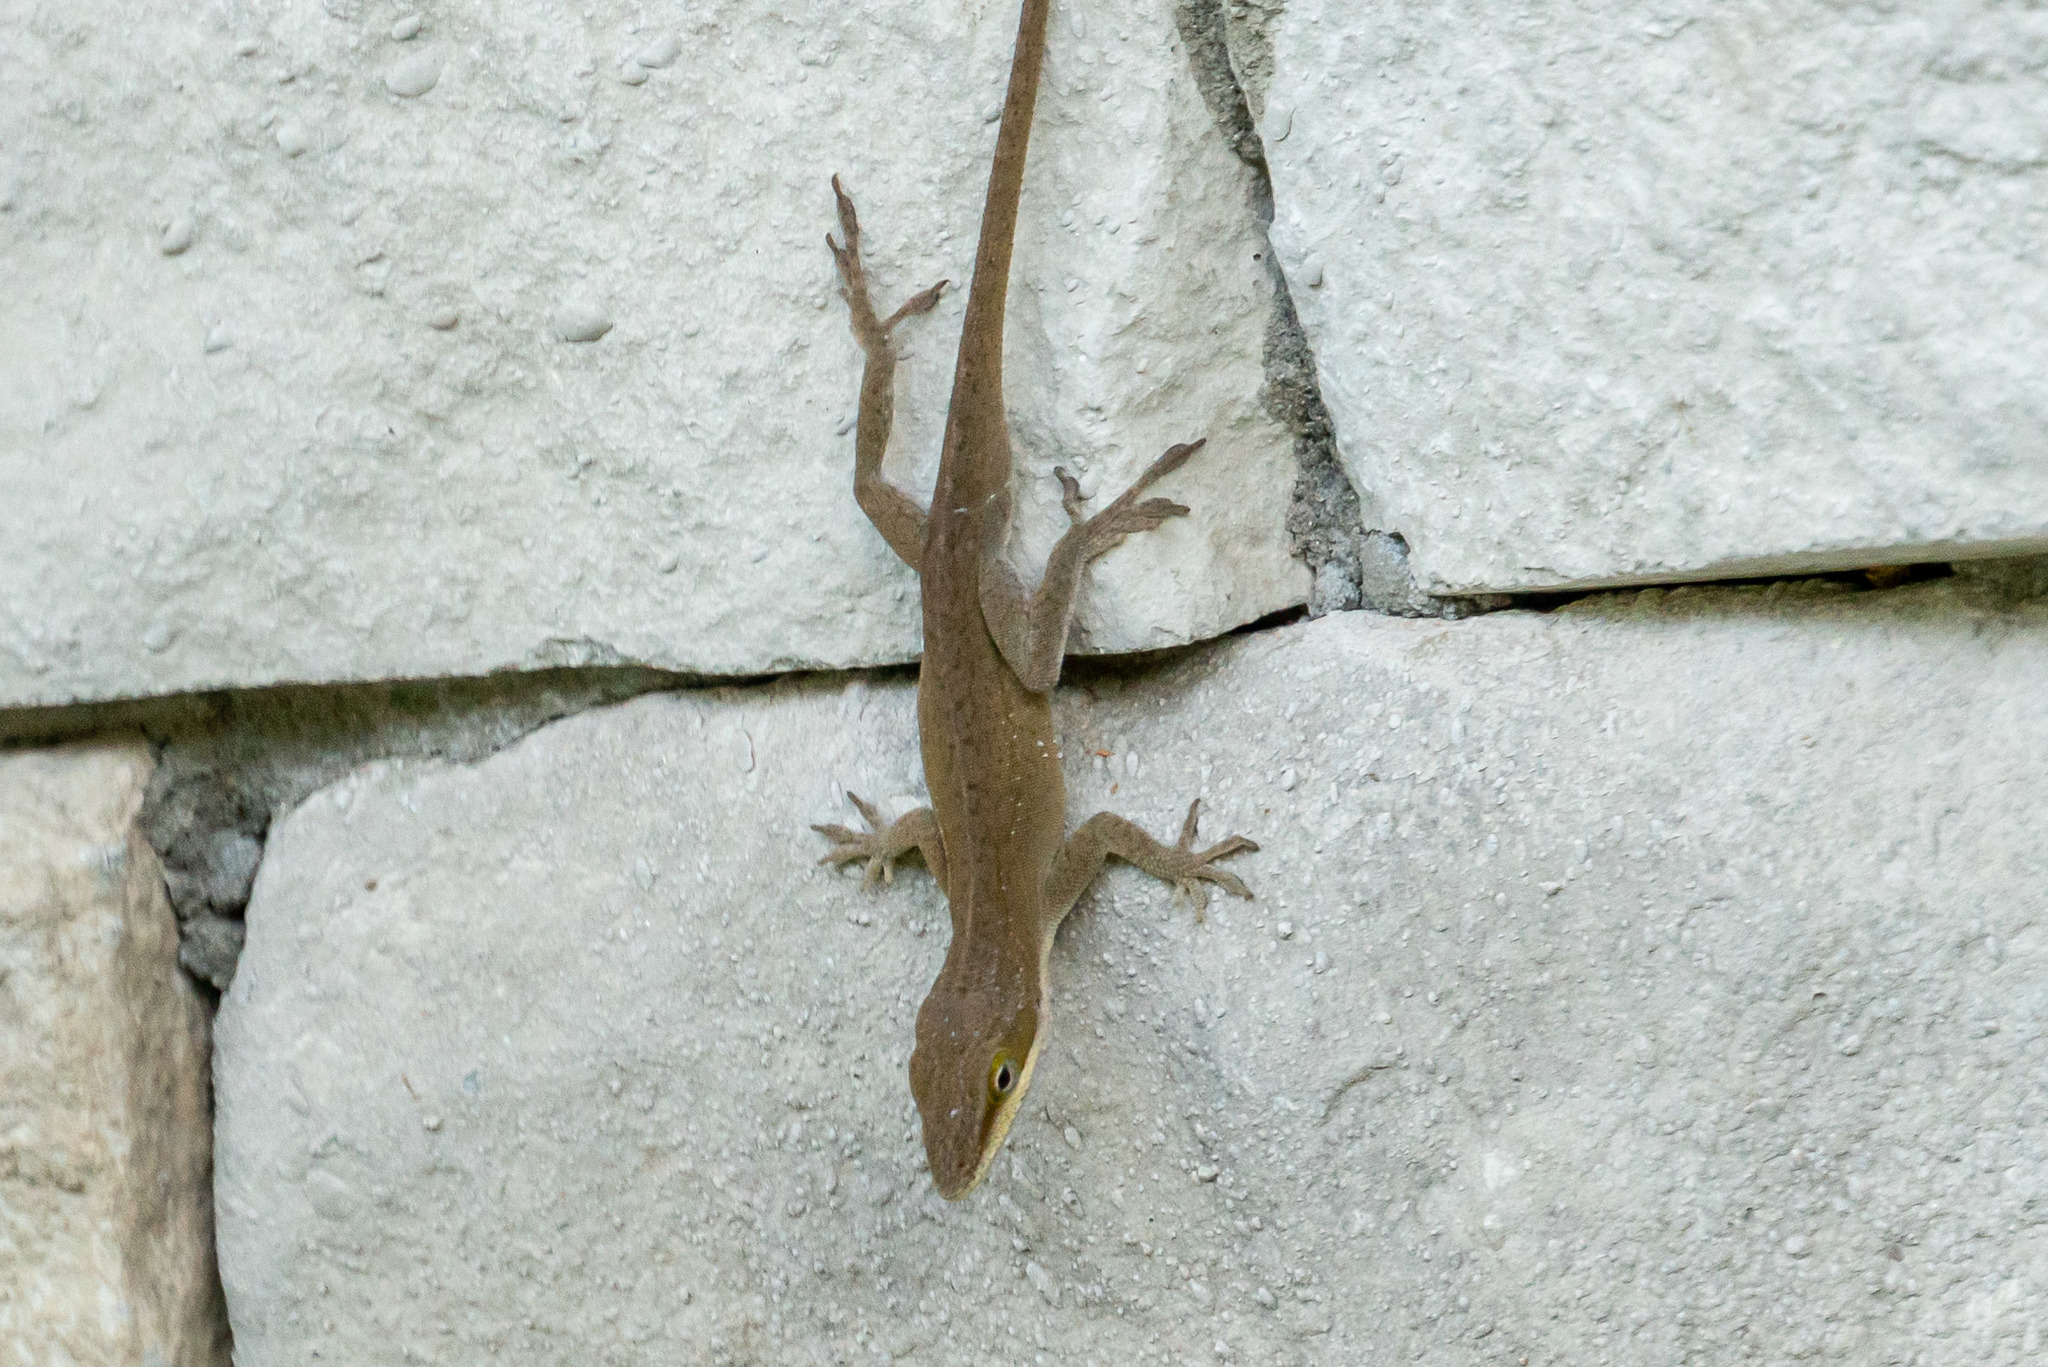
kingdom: Animalia
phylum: Chordata
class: Squamata
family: Dactyloidae
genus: Anolis
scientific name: Anolis carolinensis
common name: Green anole
